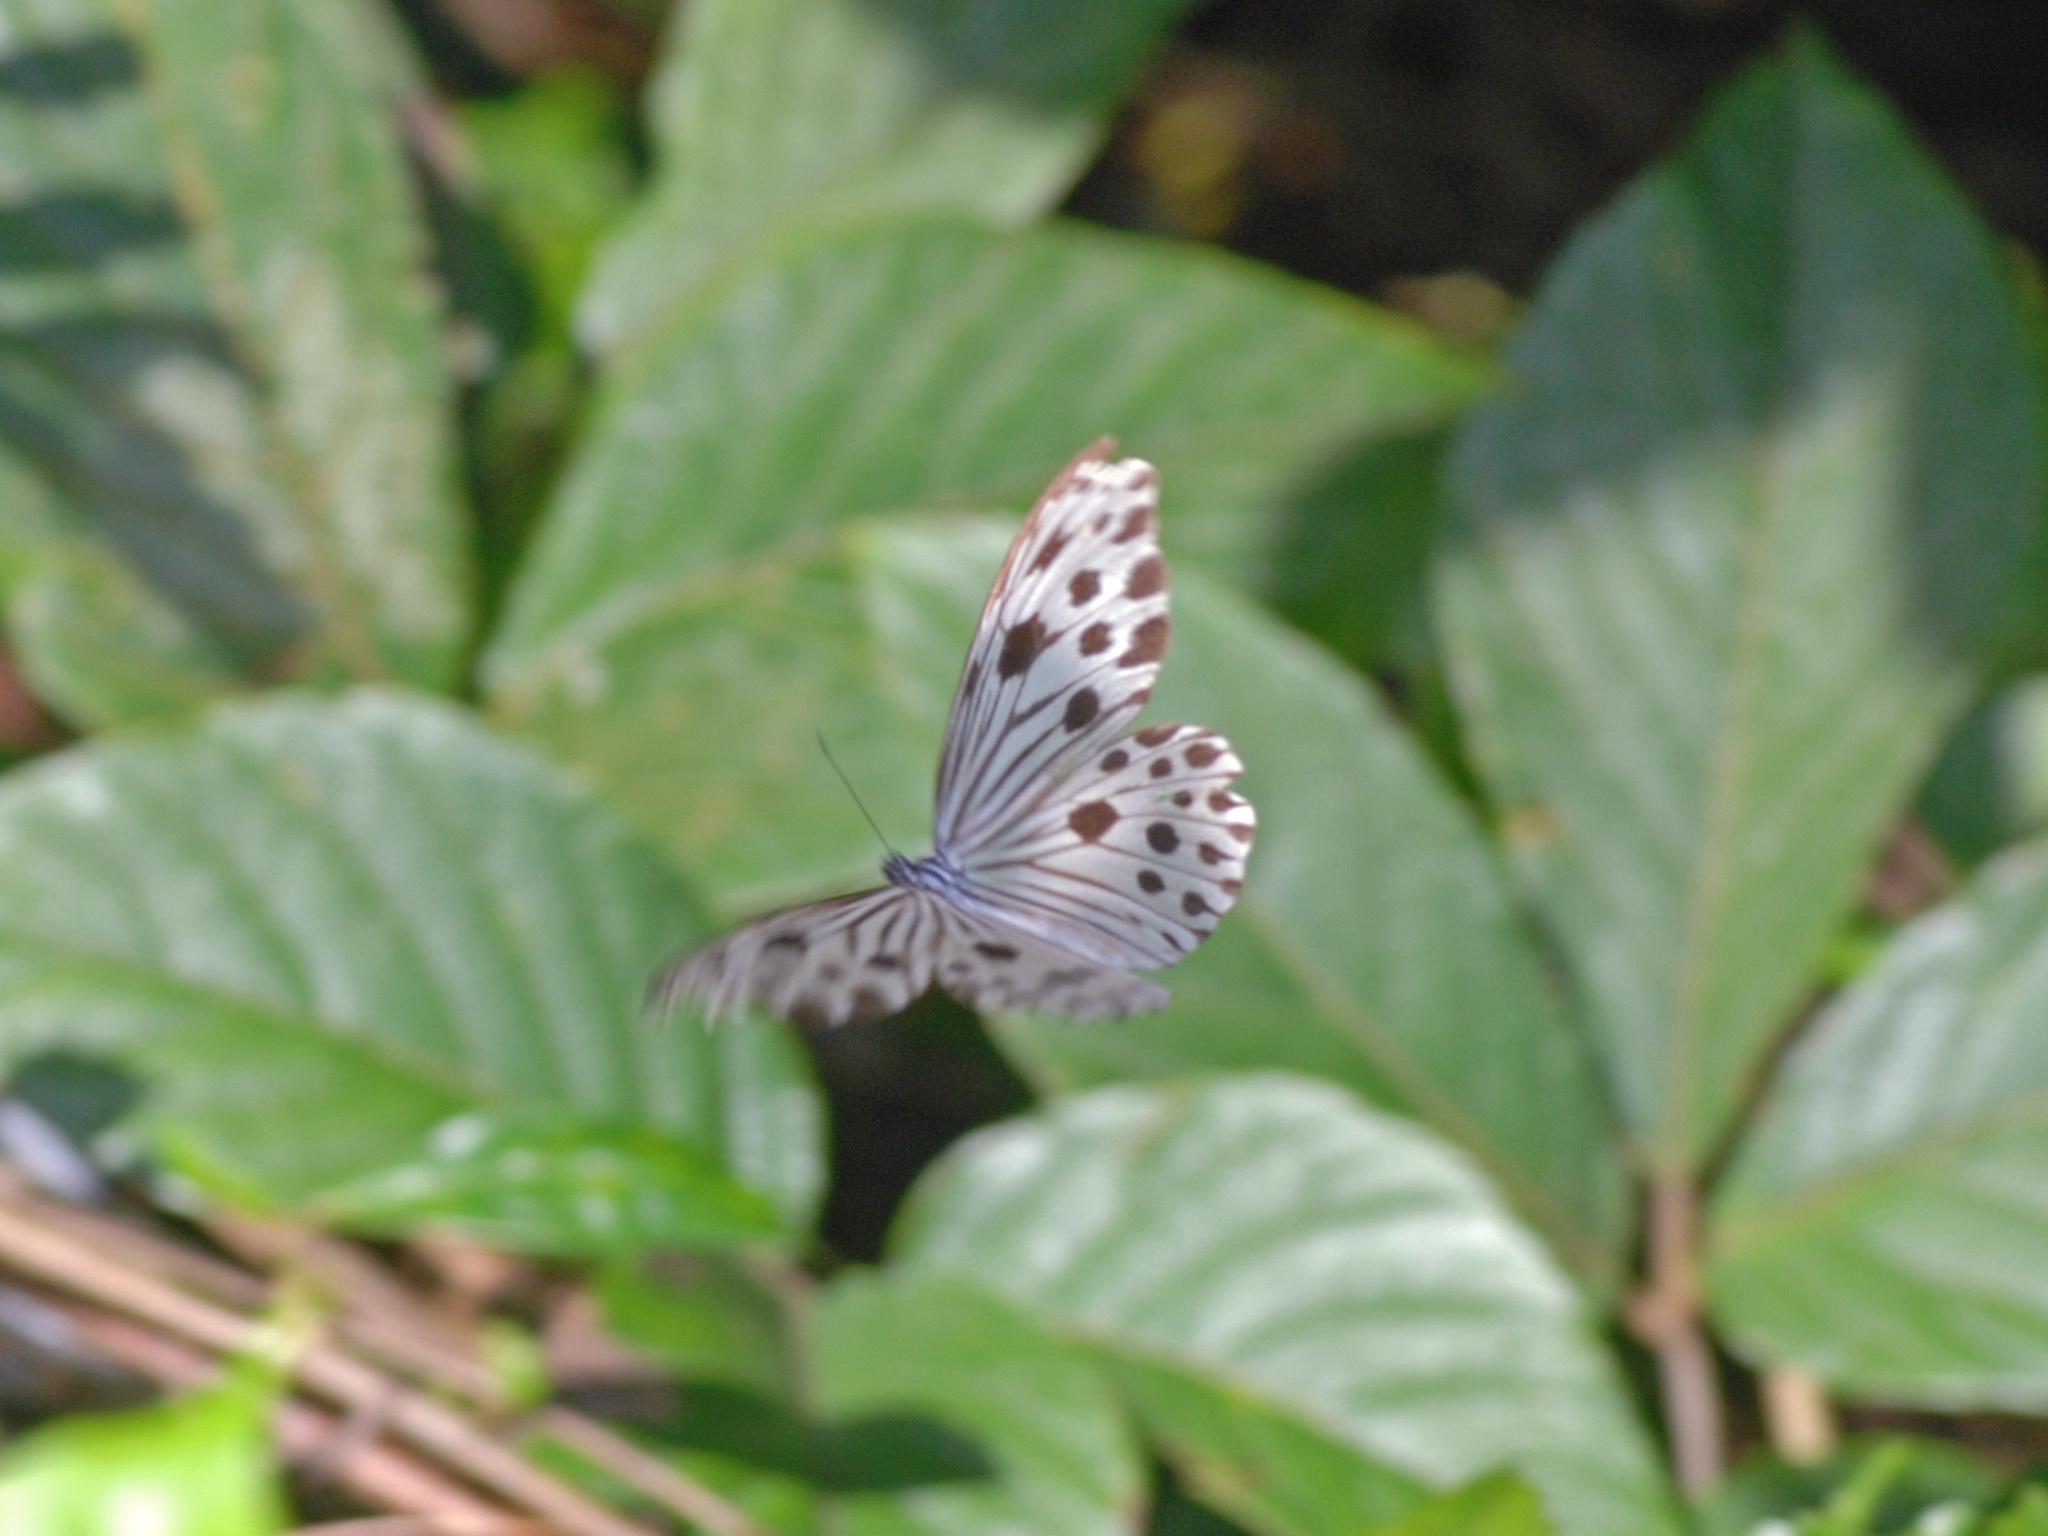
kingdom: Animalia
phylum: Arthropoda
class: Insecta
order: Lepidoptera
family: Nymphalidae
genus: Ideopsis
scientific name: Ideopsis gaura
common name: Smaller wood nymph
